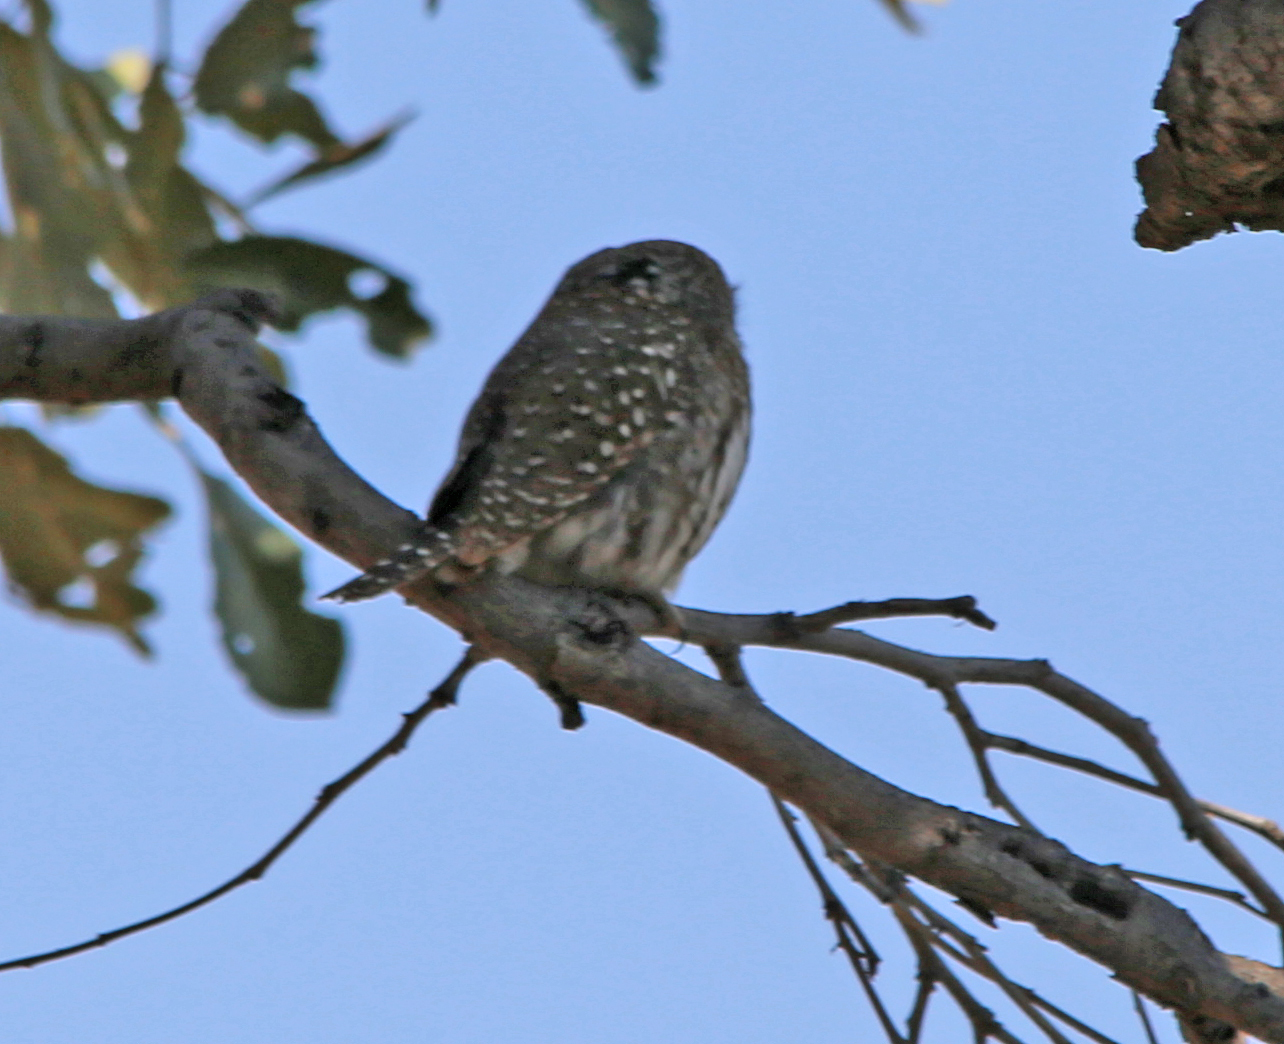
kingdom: Animalia
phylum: Chordata
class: Aves
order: Strigiformes
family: Strigidae
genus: Glaucidium
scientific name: Glaucidium perlatum
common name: Pearl-spotted owlet
